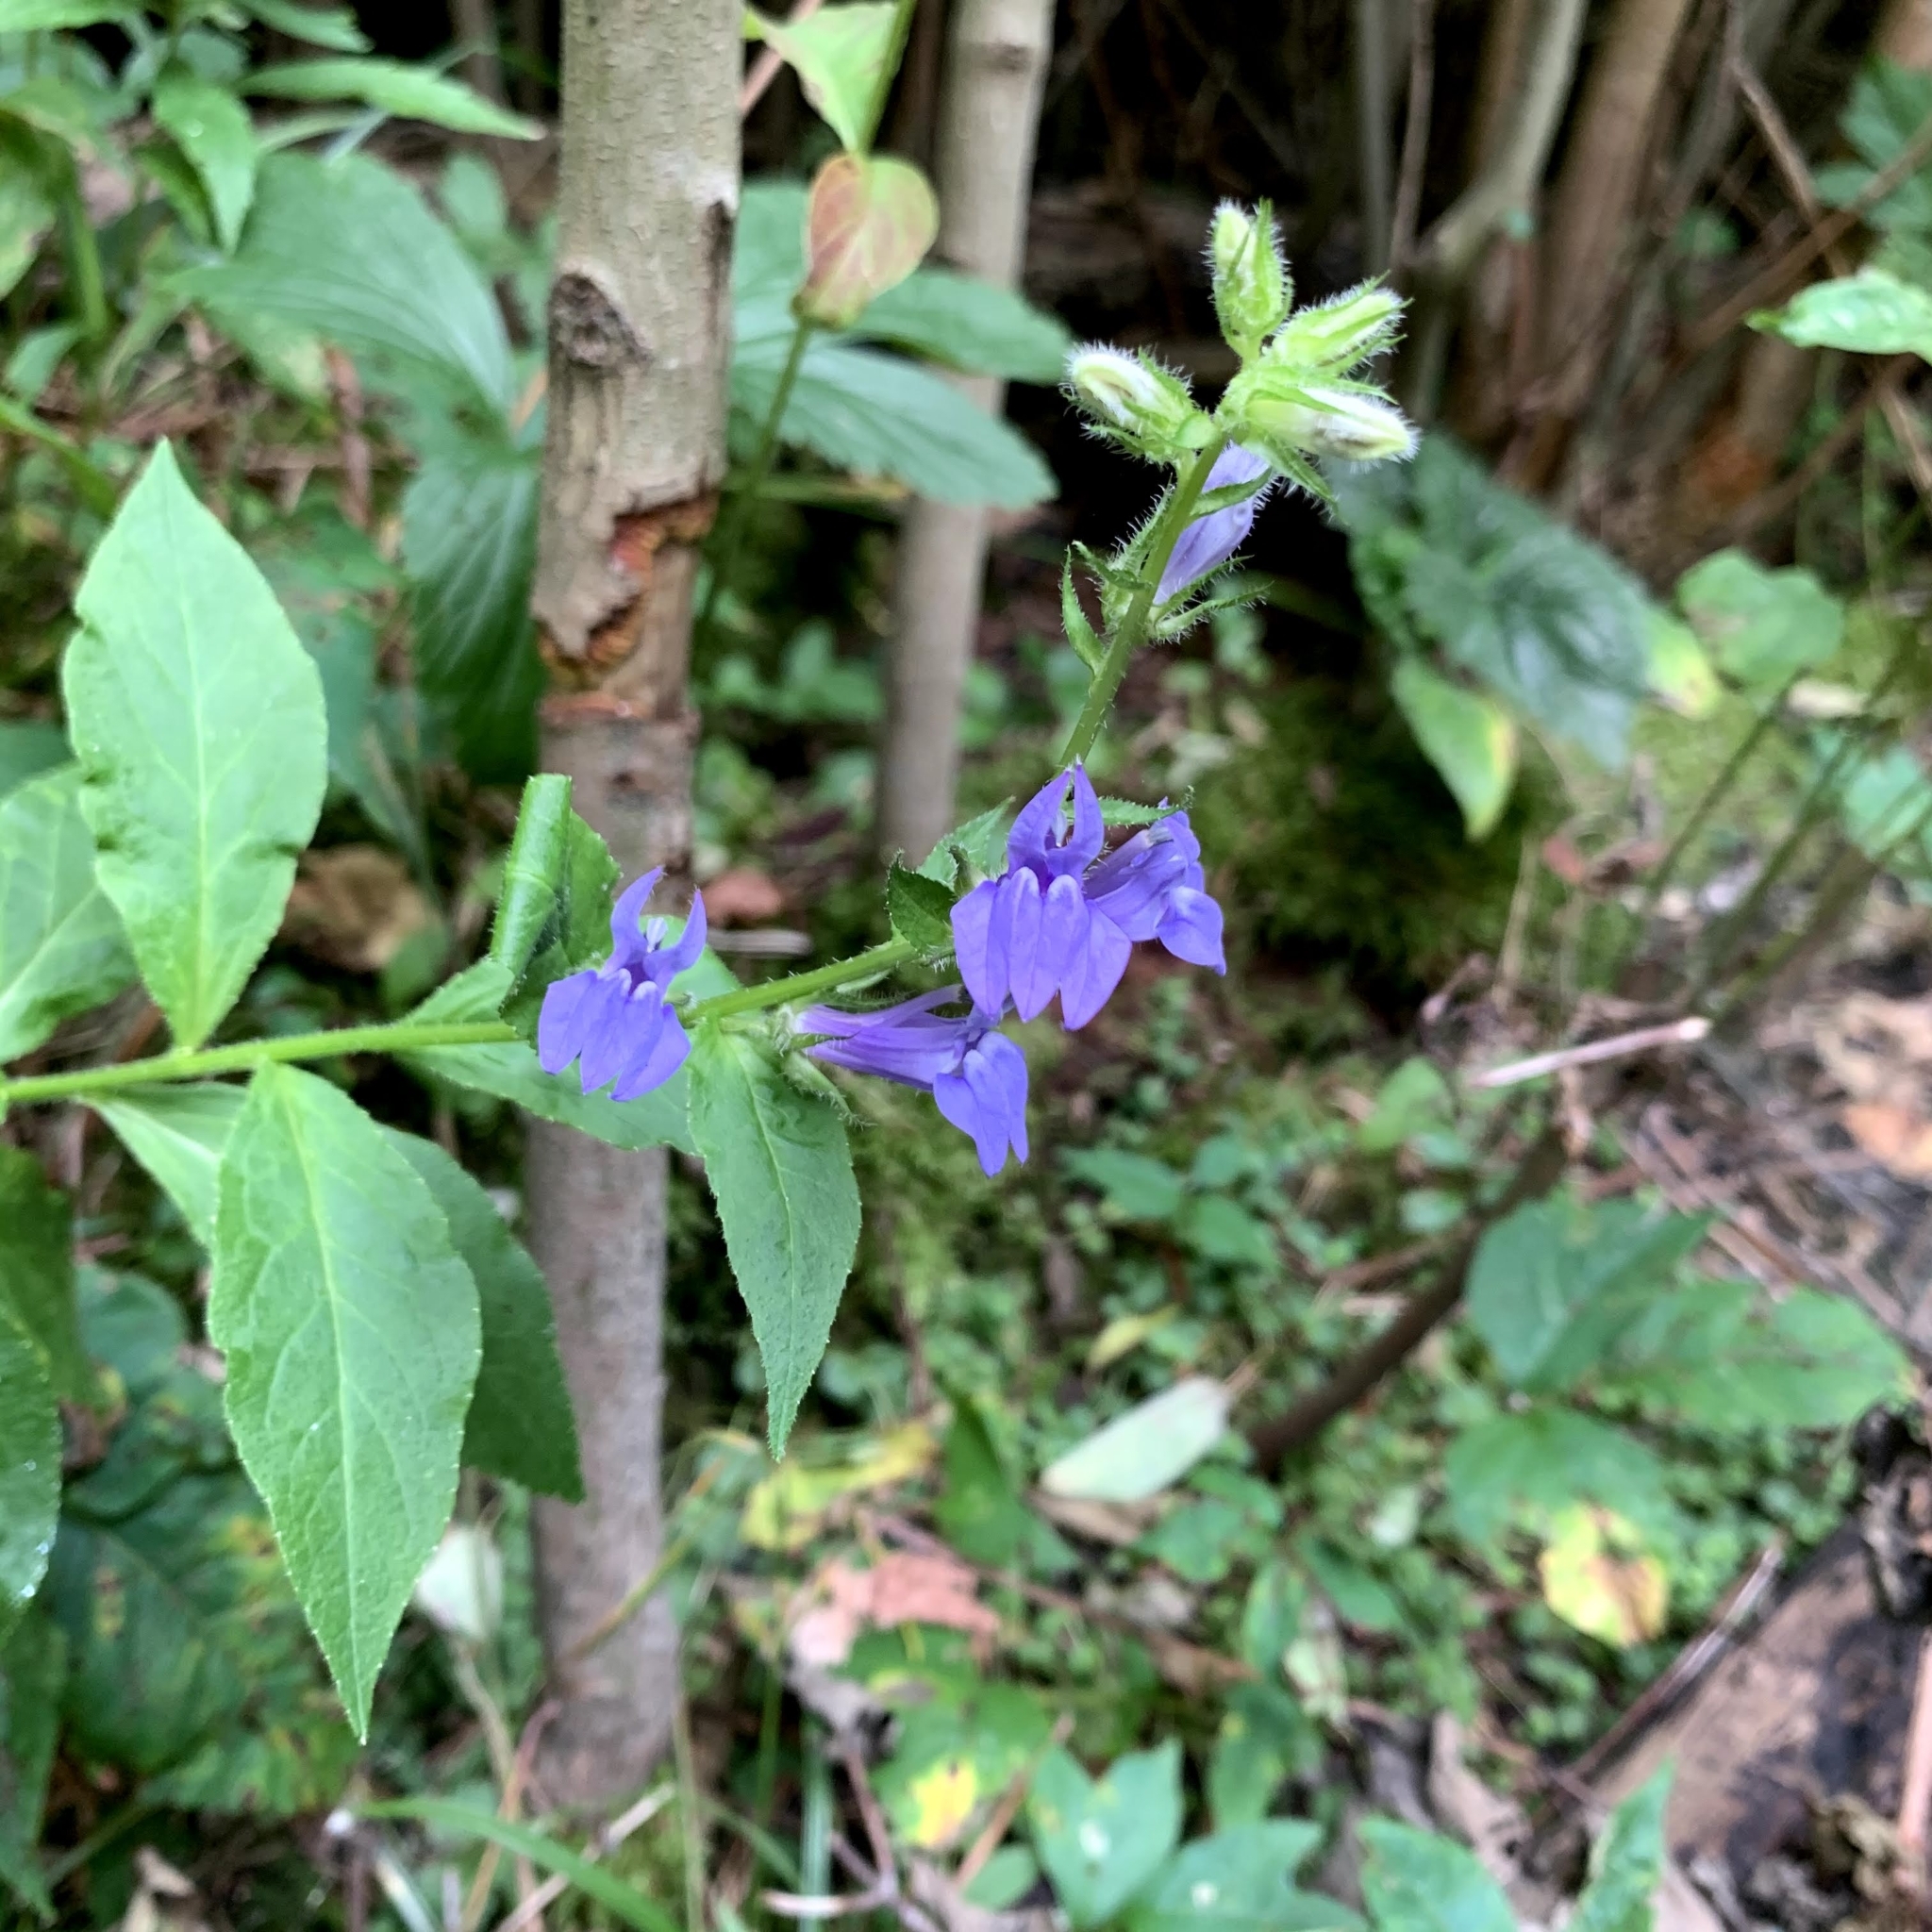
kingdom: Plantae
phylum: Tracheophyta
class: Magnoliopsida
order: Asterales
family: Campanulaceae
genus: Lobelia
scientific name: Lobelia siphilitica
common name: Great lobelia
